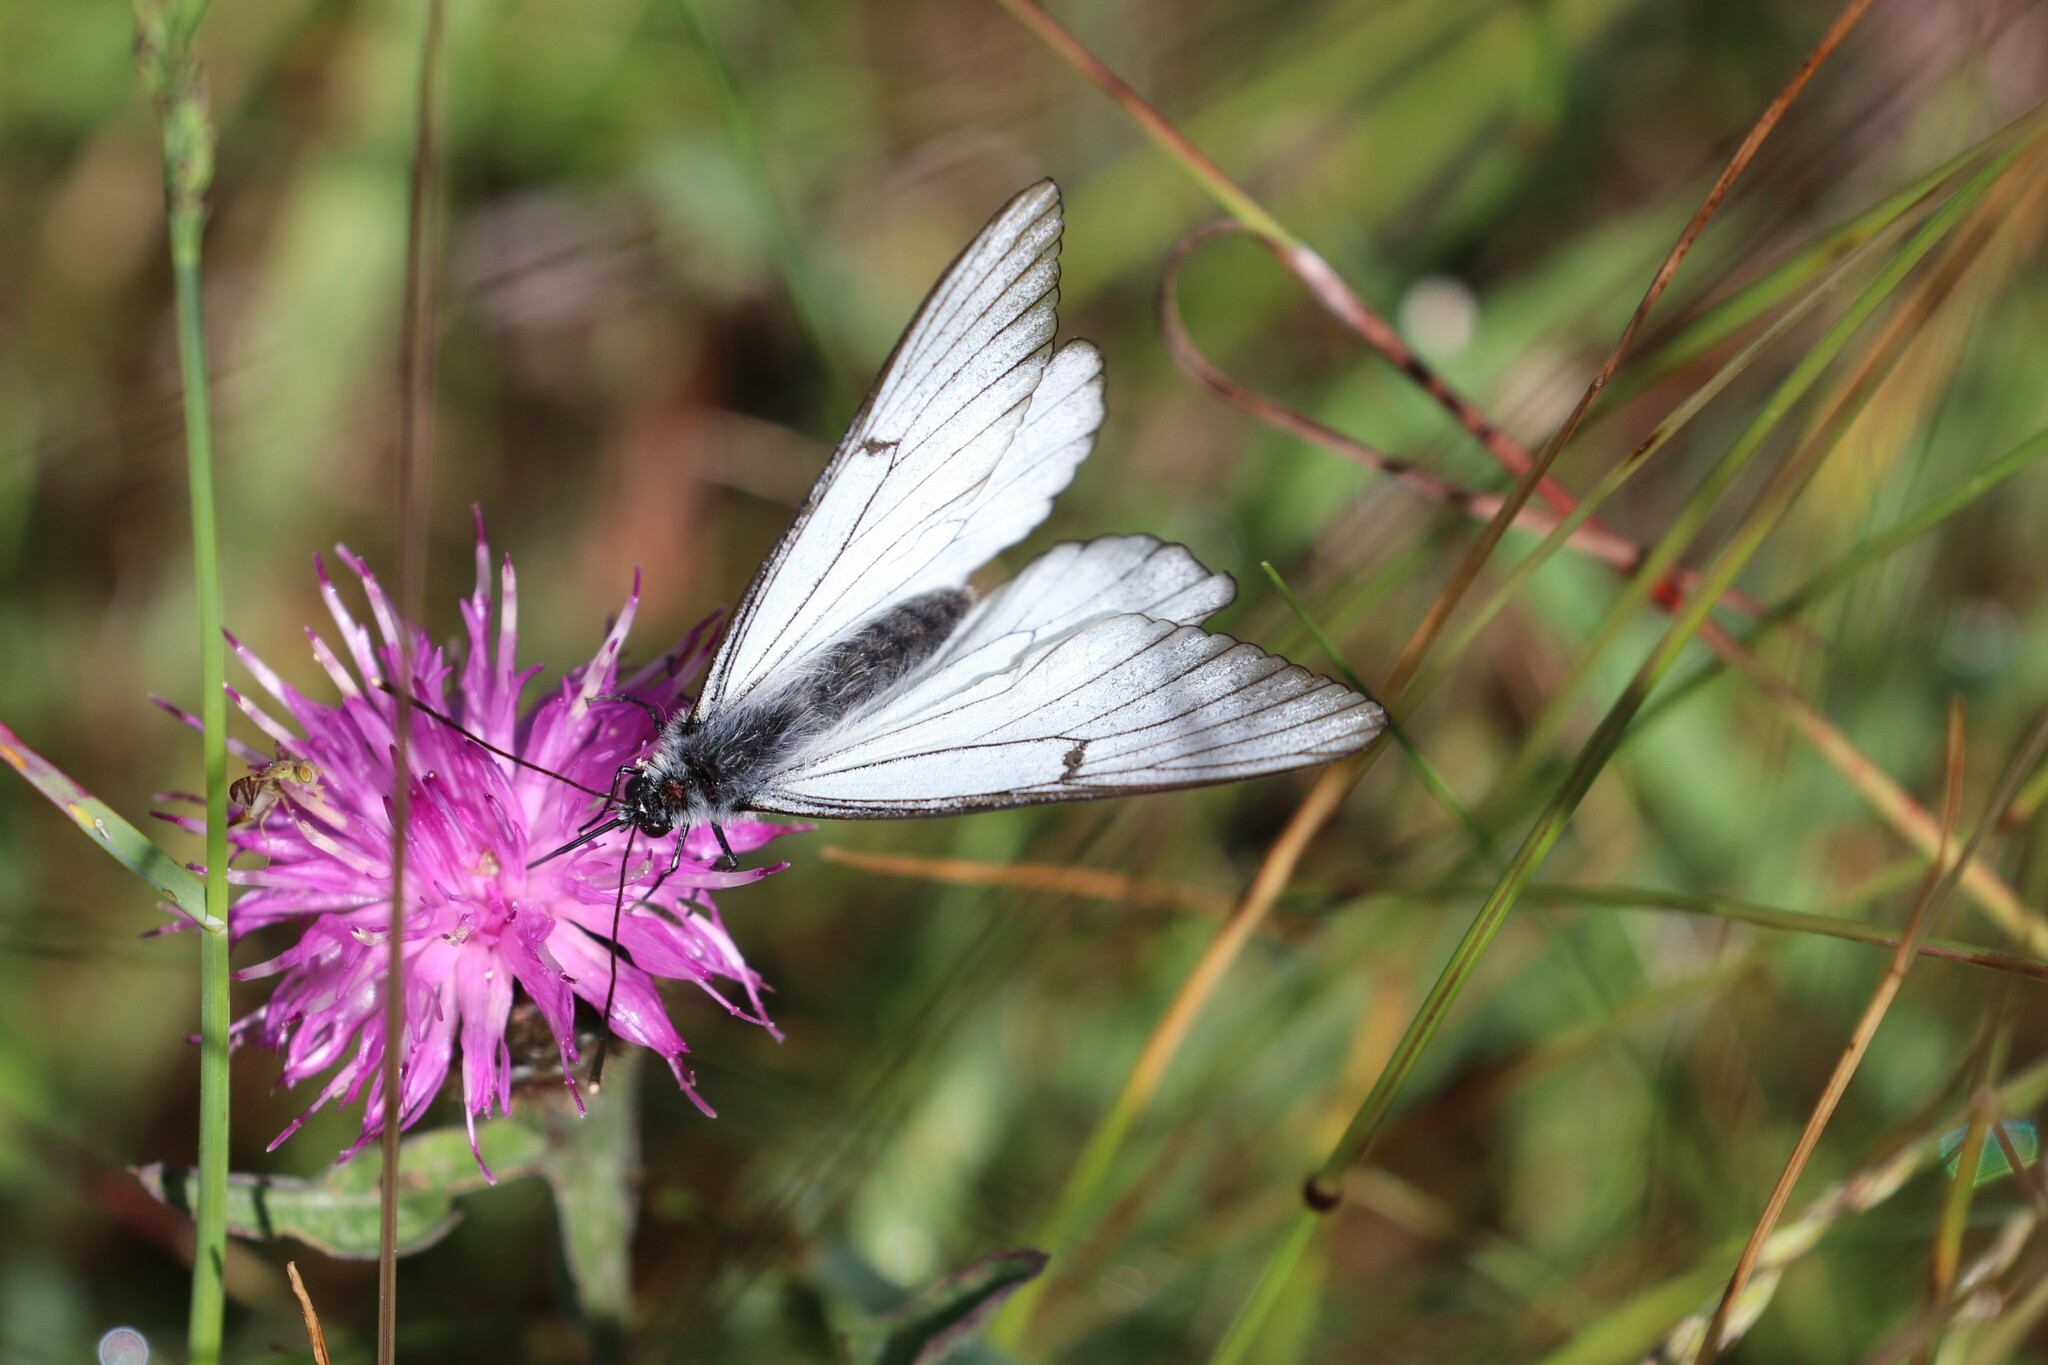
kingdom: Animalia
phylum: Arthropoda
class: Insecta
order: Lepidoptera
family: Pieridae
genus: Aporia
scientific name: Aporia crataegi
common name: Black-veined white
